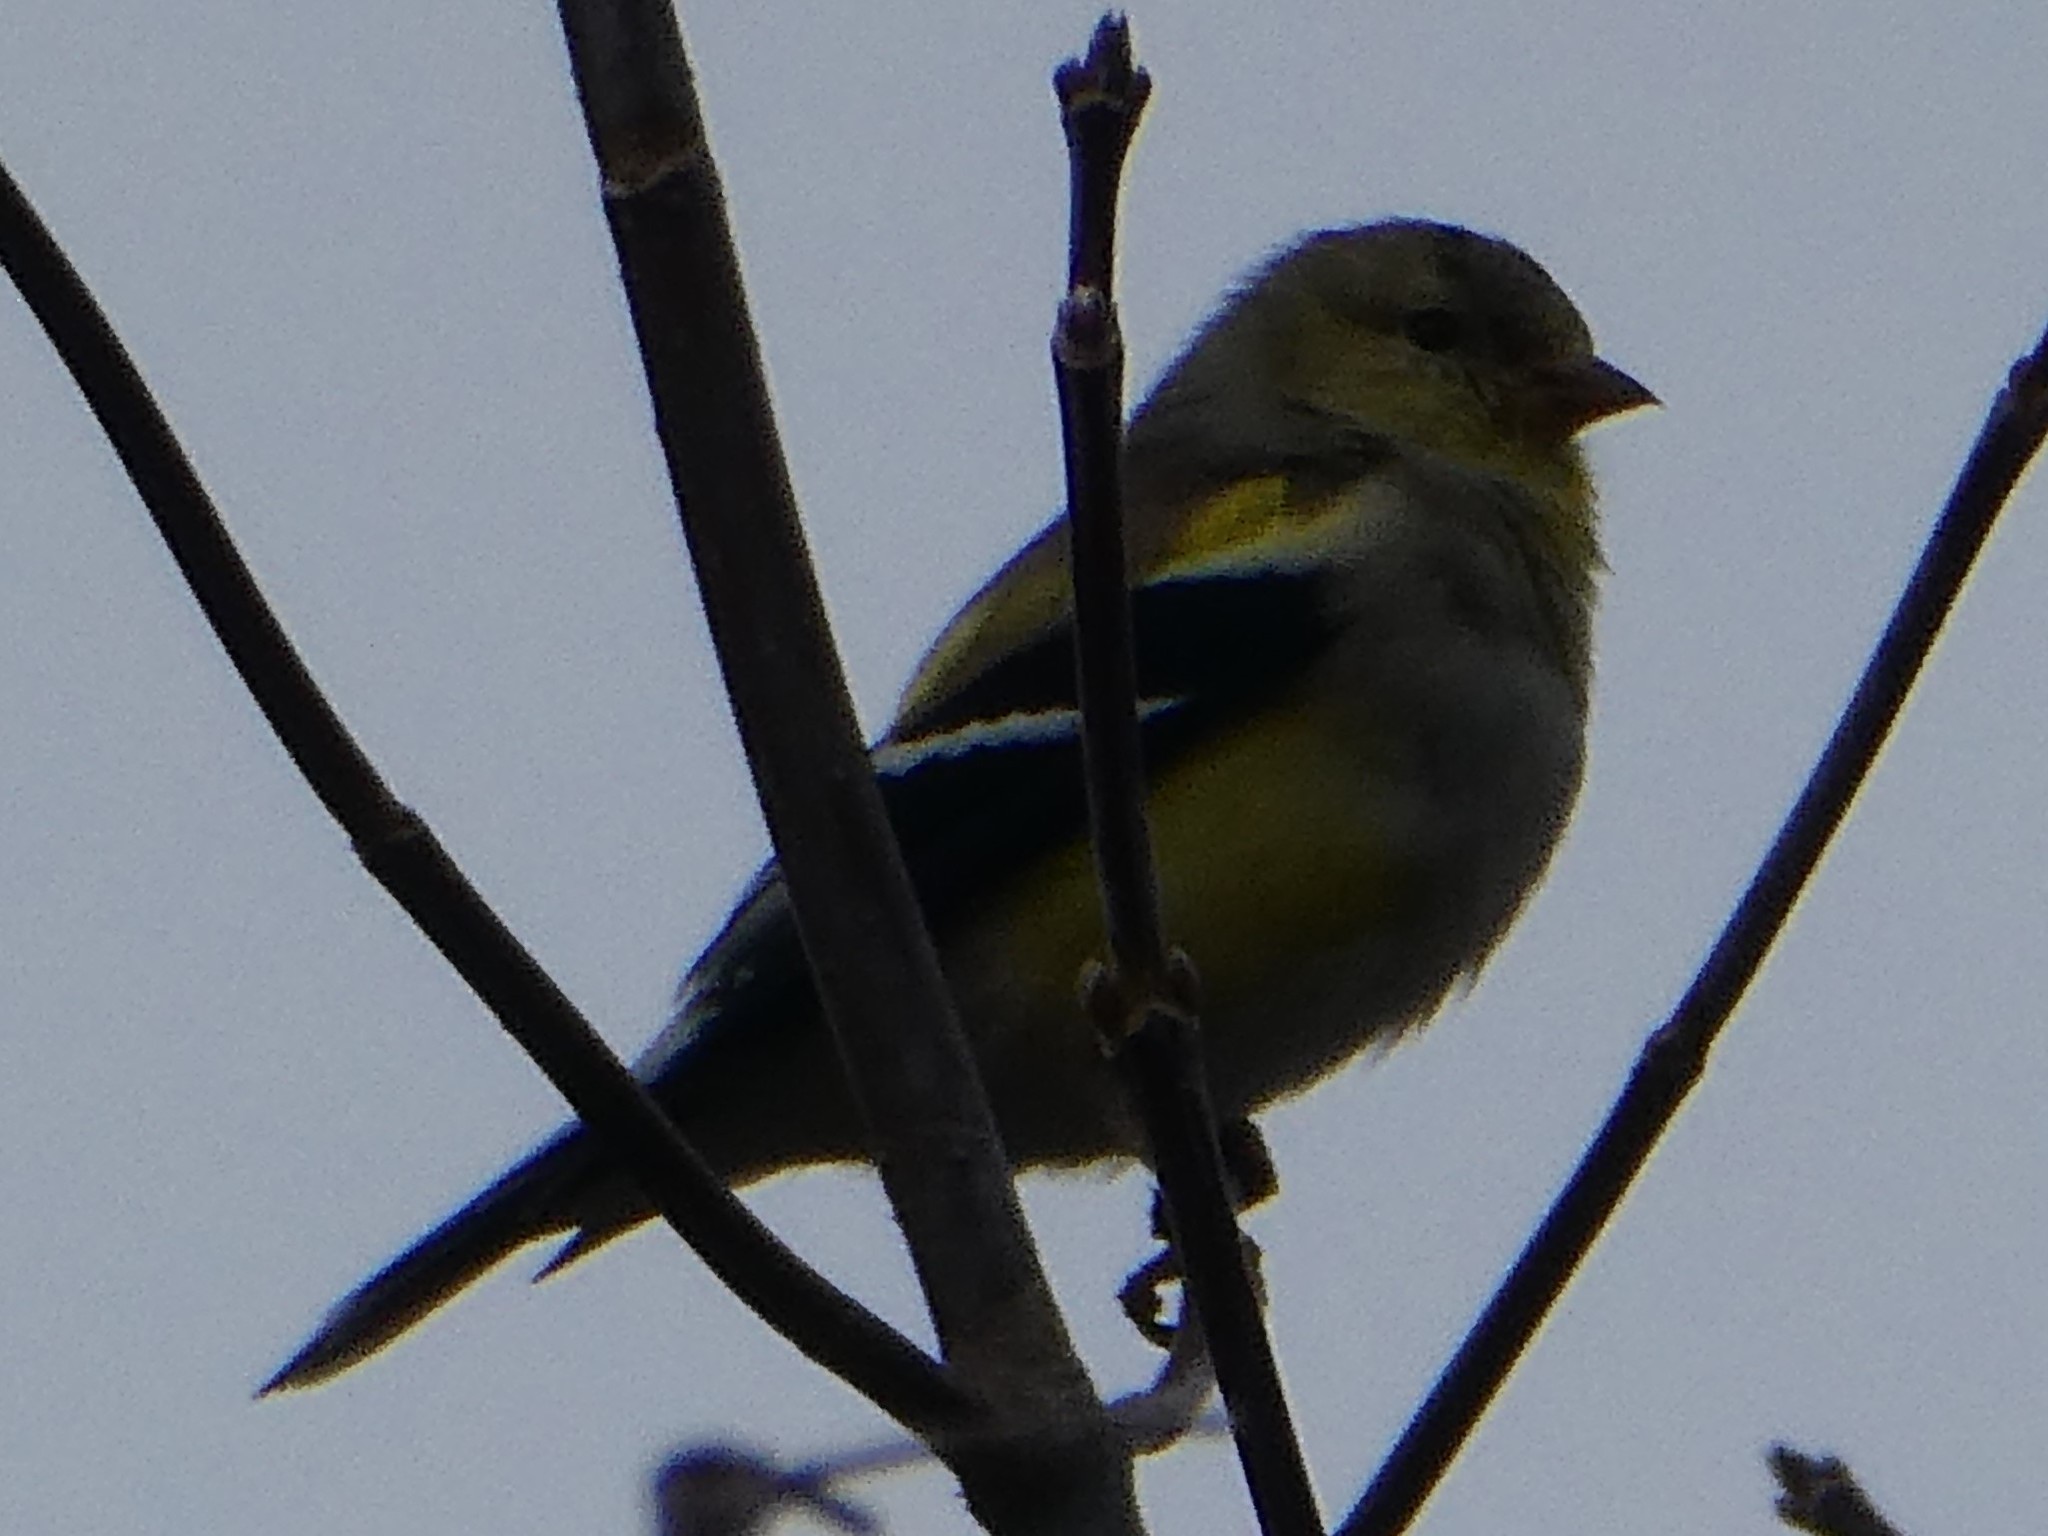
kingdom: Animalia
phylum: Chordata
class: Aves
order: Passeriformes
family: Fringillidae
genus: Spinus
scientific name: Spinus tristis
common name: American goldfinch
